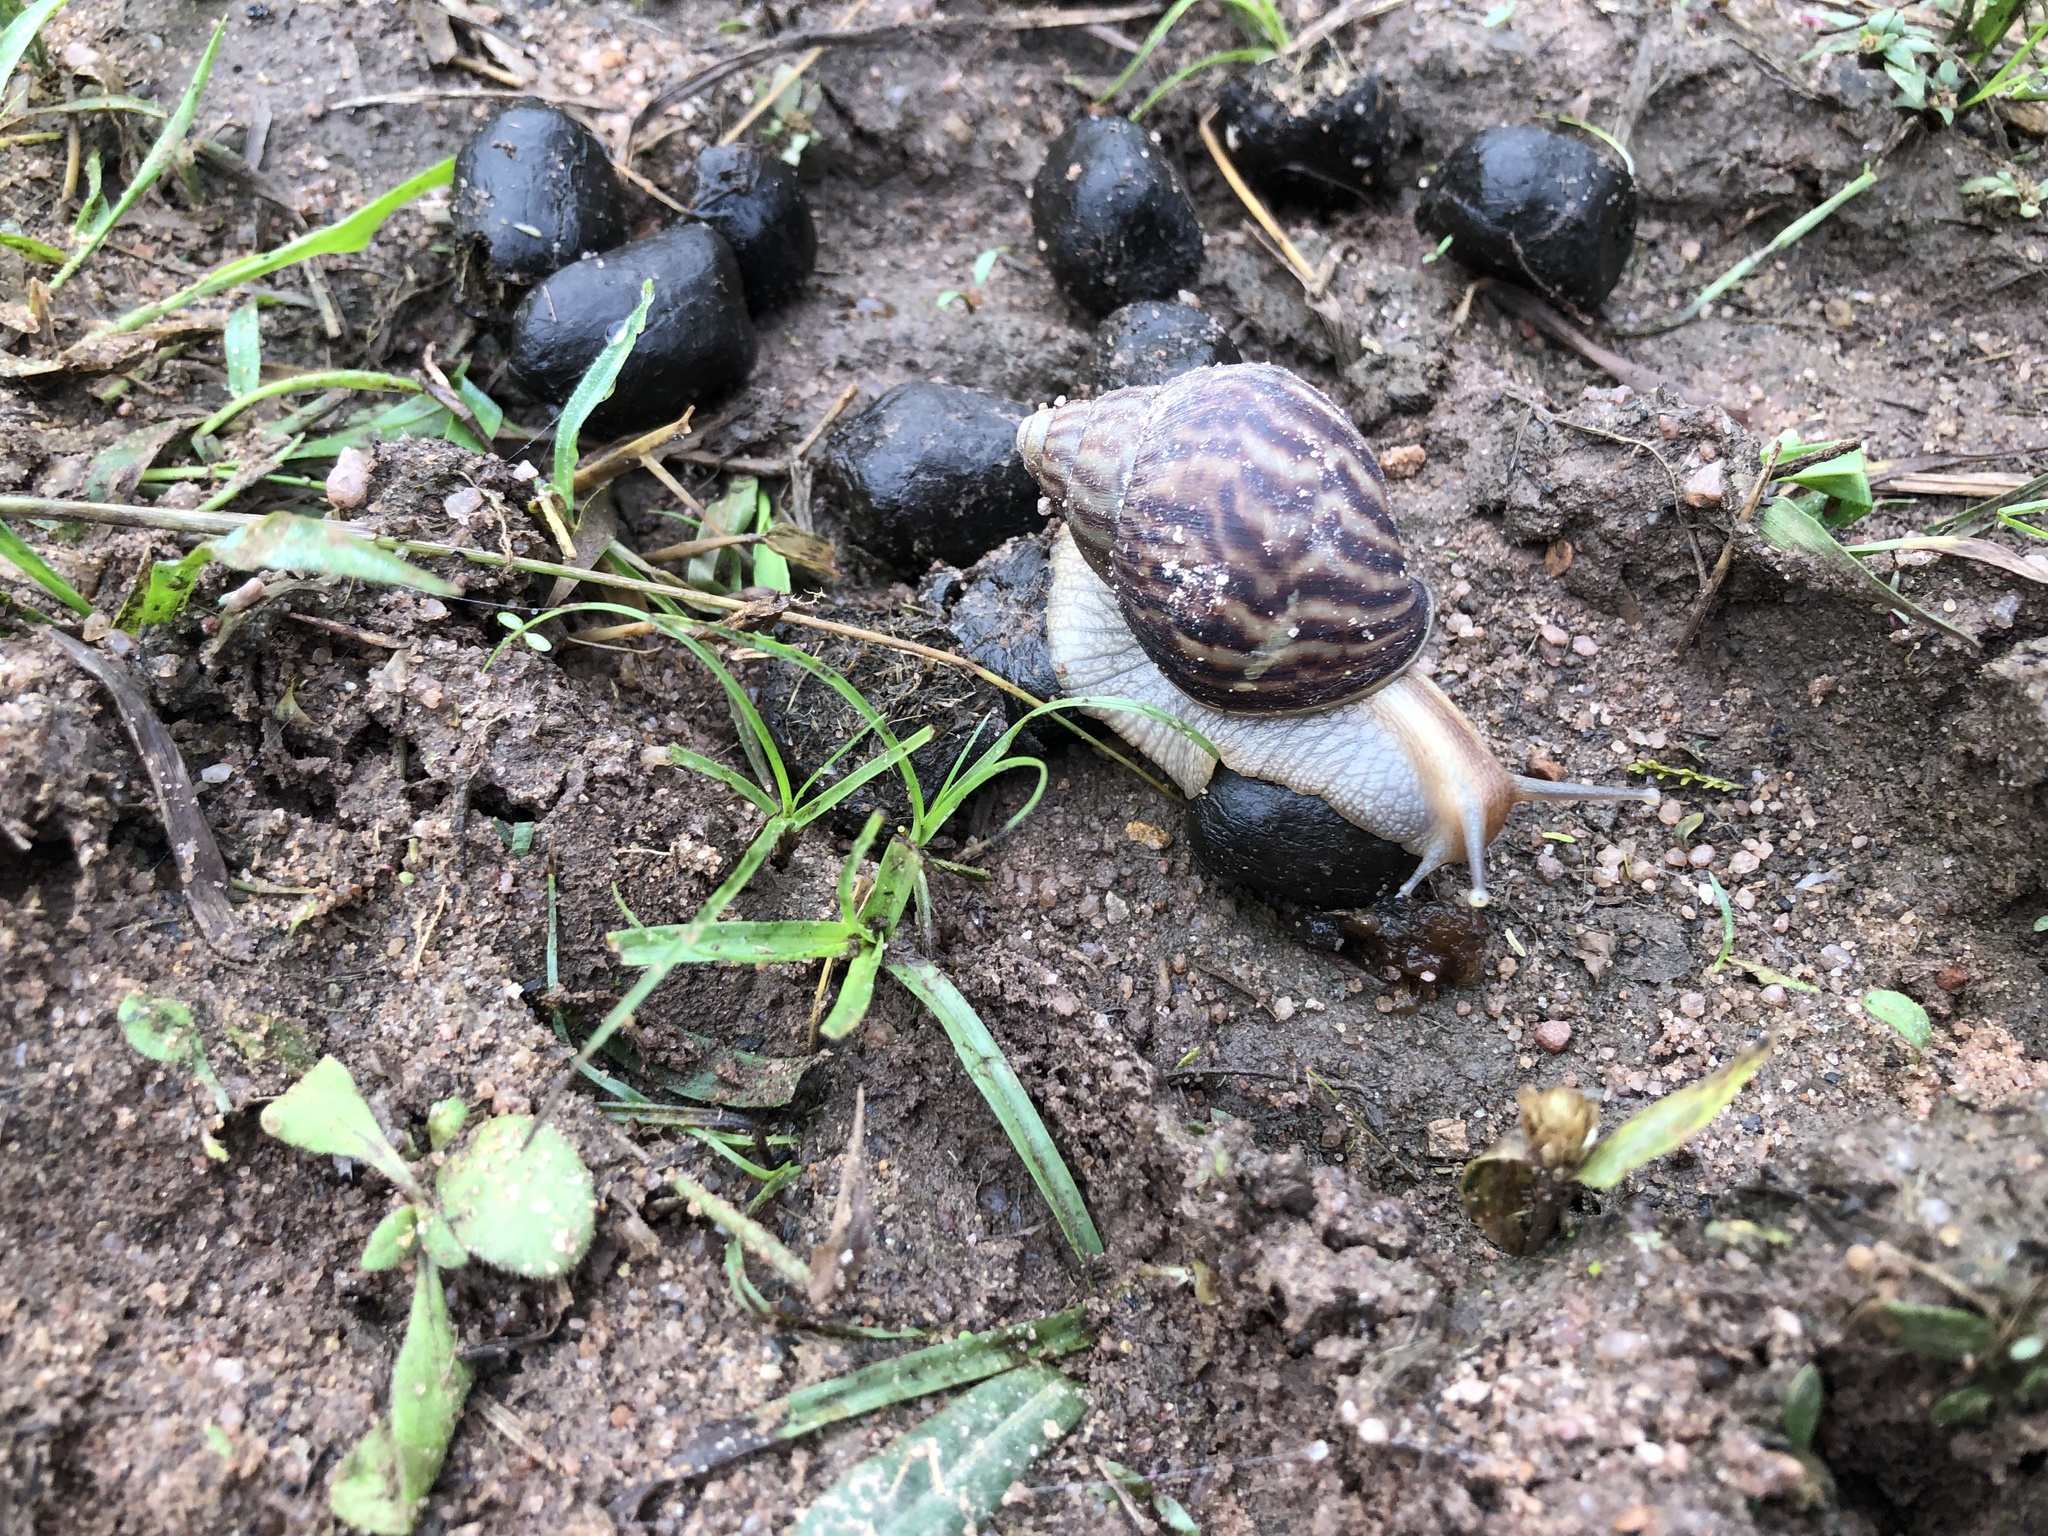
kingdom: Animalia
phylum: Mollusca
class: Gastropoda
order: Stylommatophora
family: Achatinidae
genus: Lissachatina
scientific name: Lissachatina immaculata
